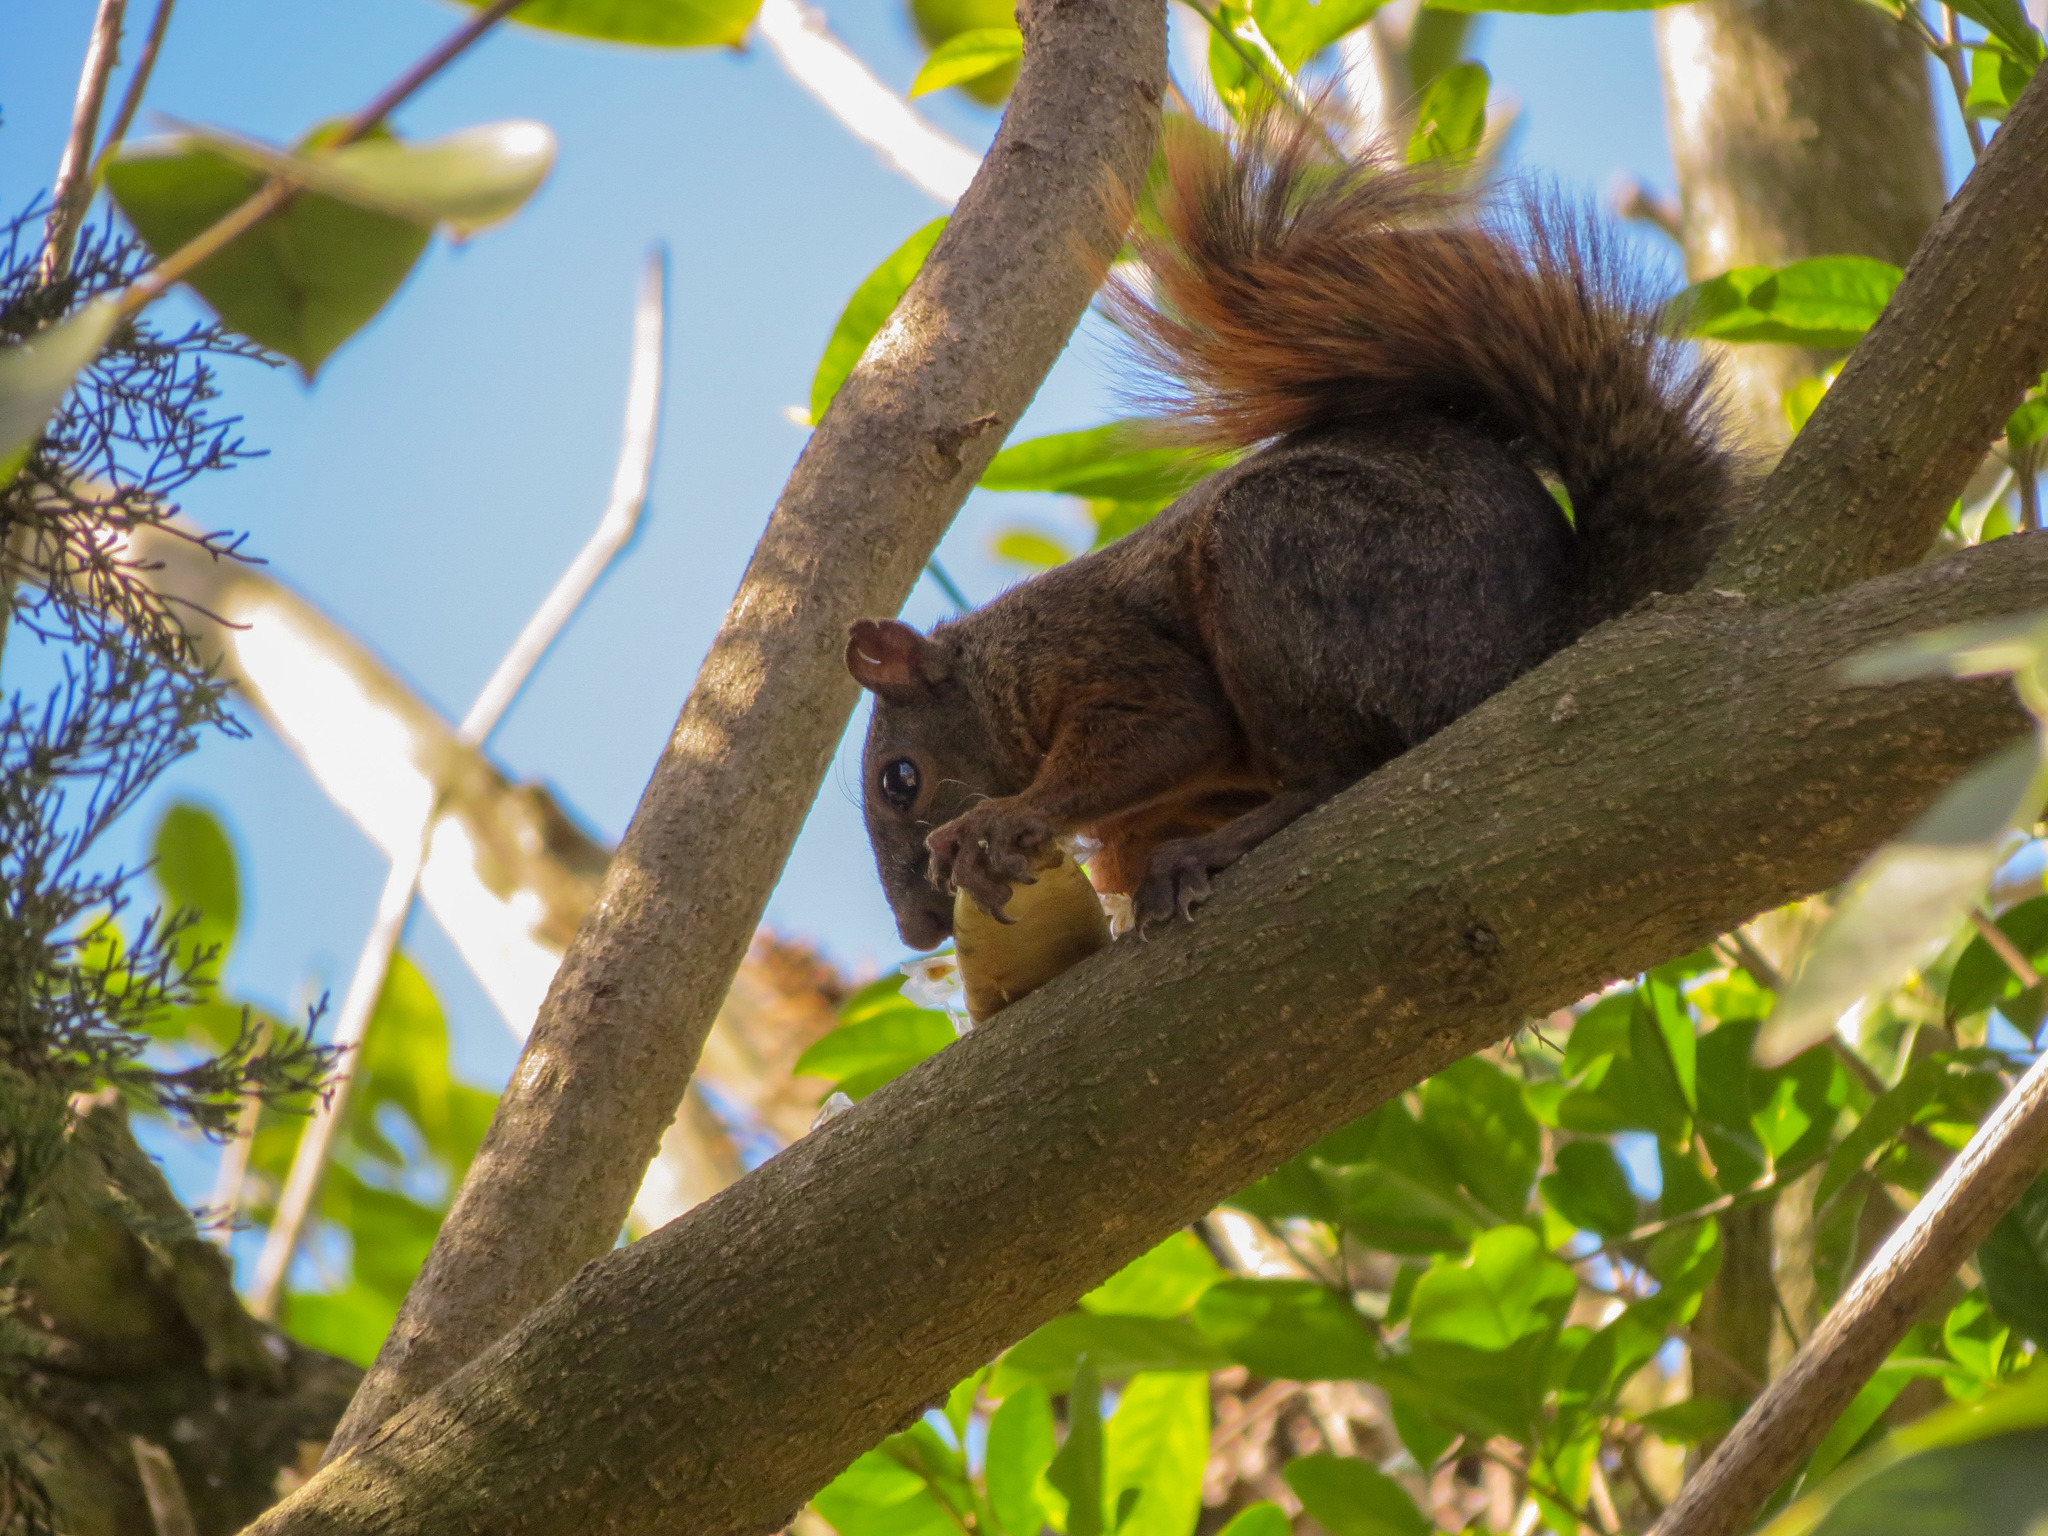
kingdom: Animalia
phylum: Chordata
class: Mammalia
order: Rodentia
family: Sciuridae
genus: Sciurus
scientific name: Sciurus granatensis
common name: Red-tailed squirrel
